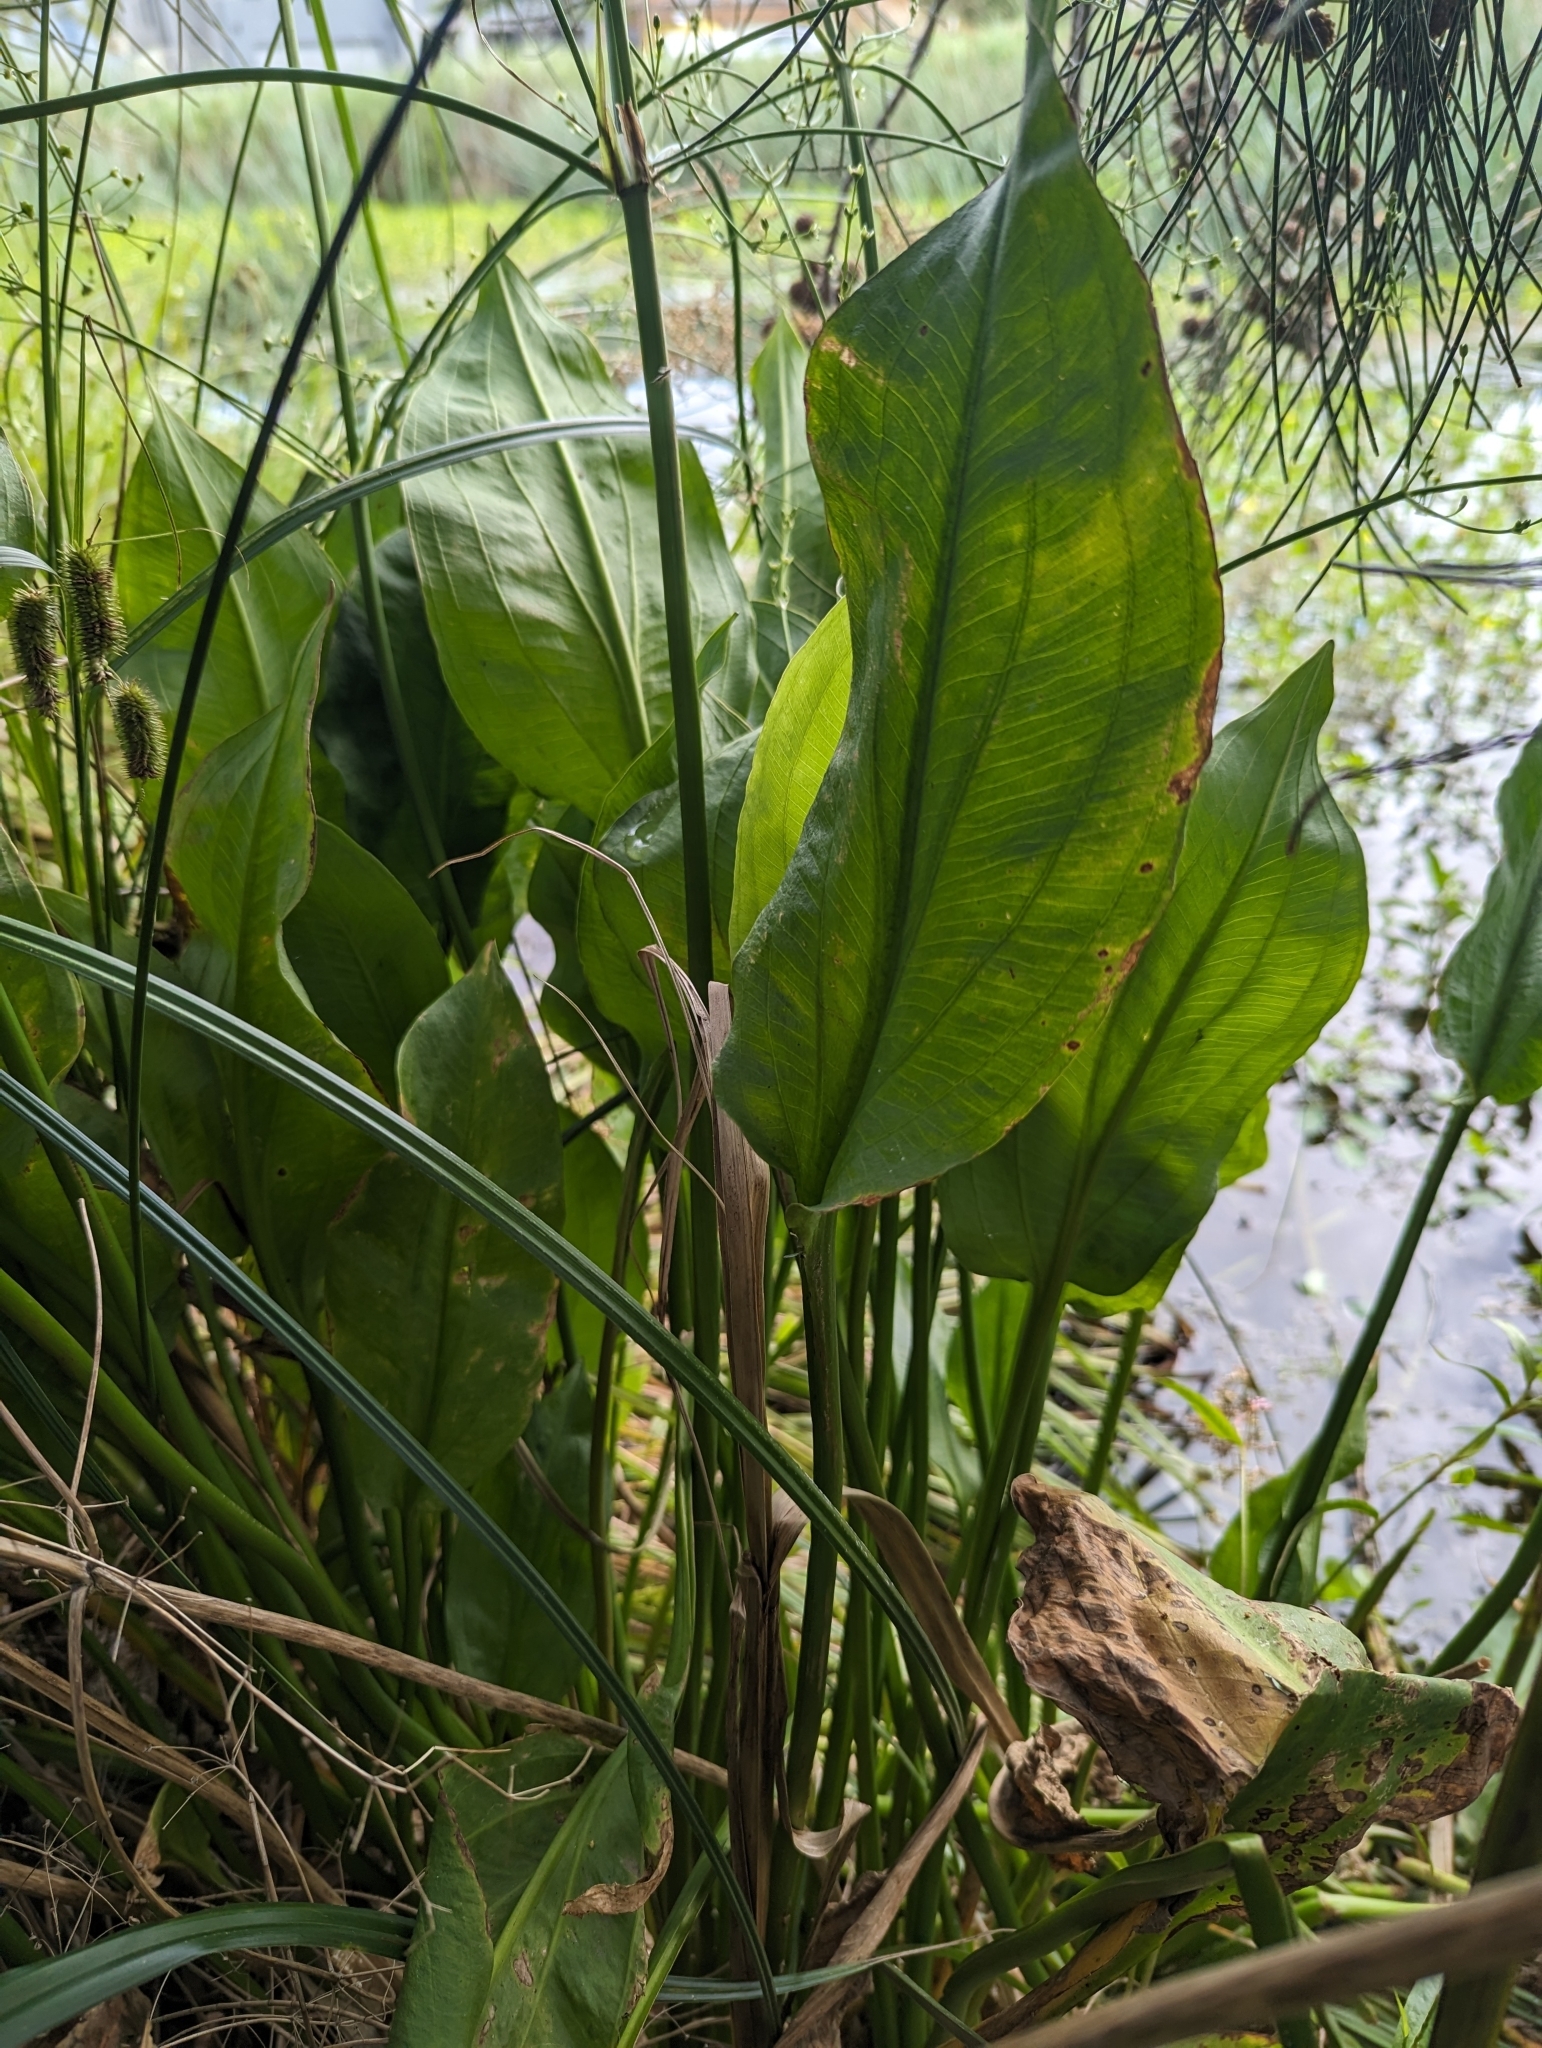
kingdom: Plantae
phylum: Tracheophyta
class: Liliopsida
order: Alismatales
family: Alismataceae
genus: Alisma
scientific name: Alisma plantago-aquatica
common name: Water-plantain
